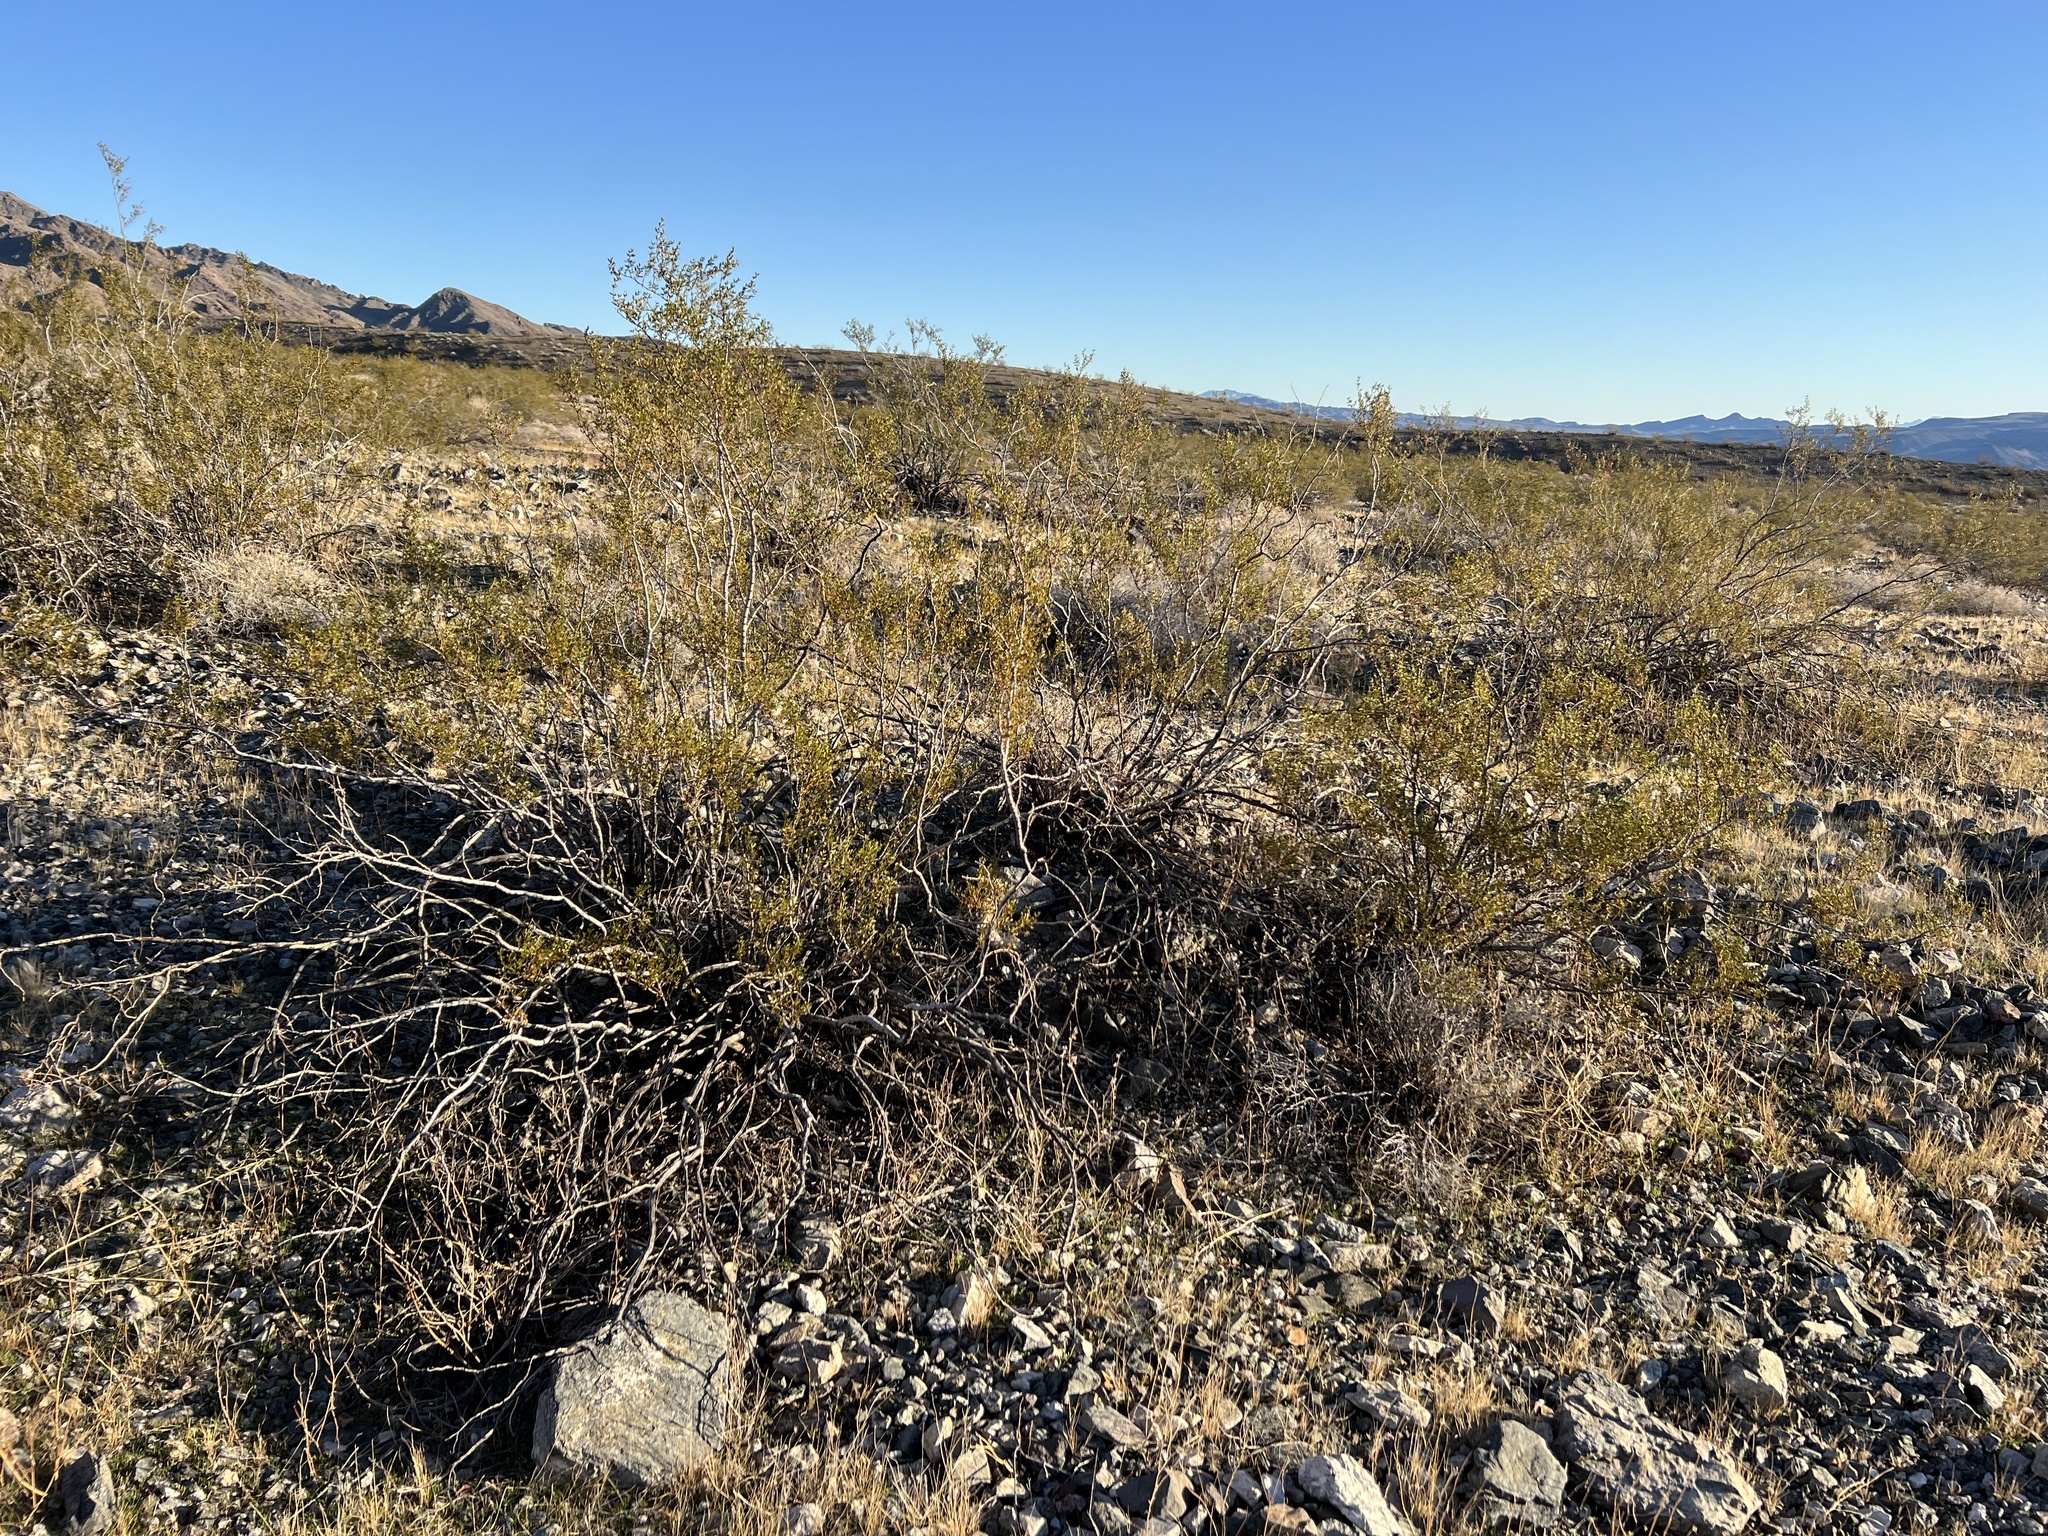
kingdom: Plantae
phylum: Tracheophyta
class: Magnoliopsida
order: Zygophyllales
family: Zygophyllaceae
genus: Larrea
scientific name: Larrea tridentata
